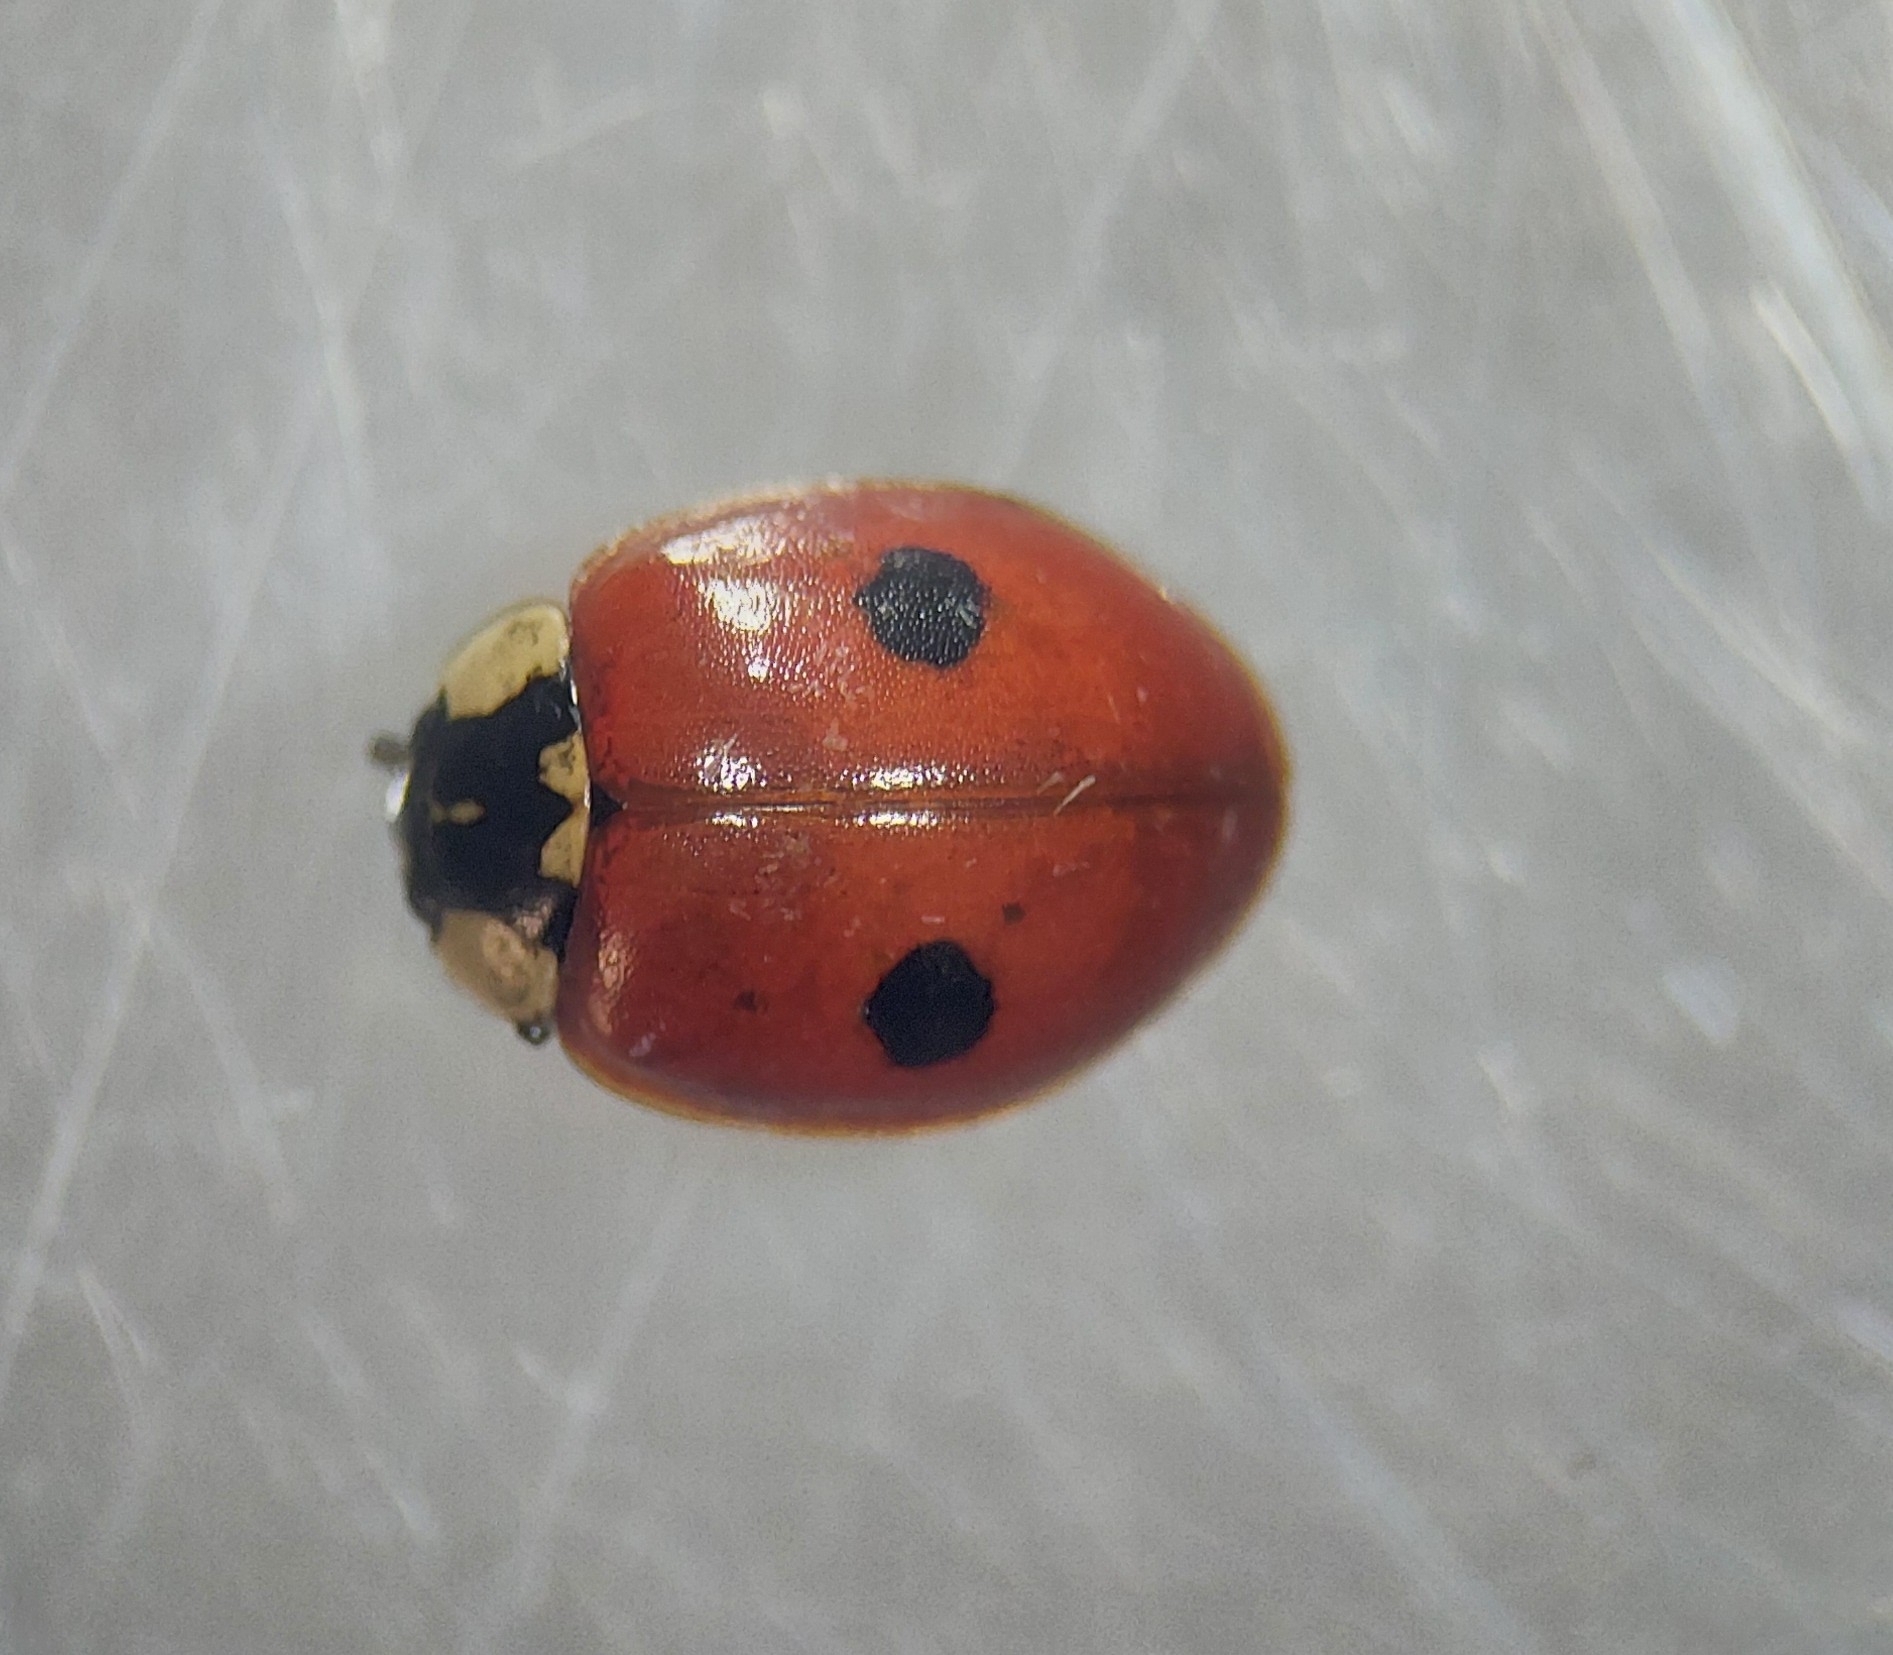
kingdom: Animalia
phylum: Arthropoda
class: Insecta
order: Coleoptera
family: Coccinellidae
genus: Adalia
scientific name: Adalia bipunctata
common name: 2-spot ladybird
